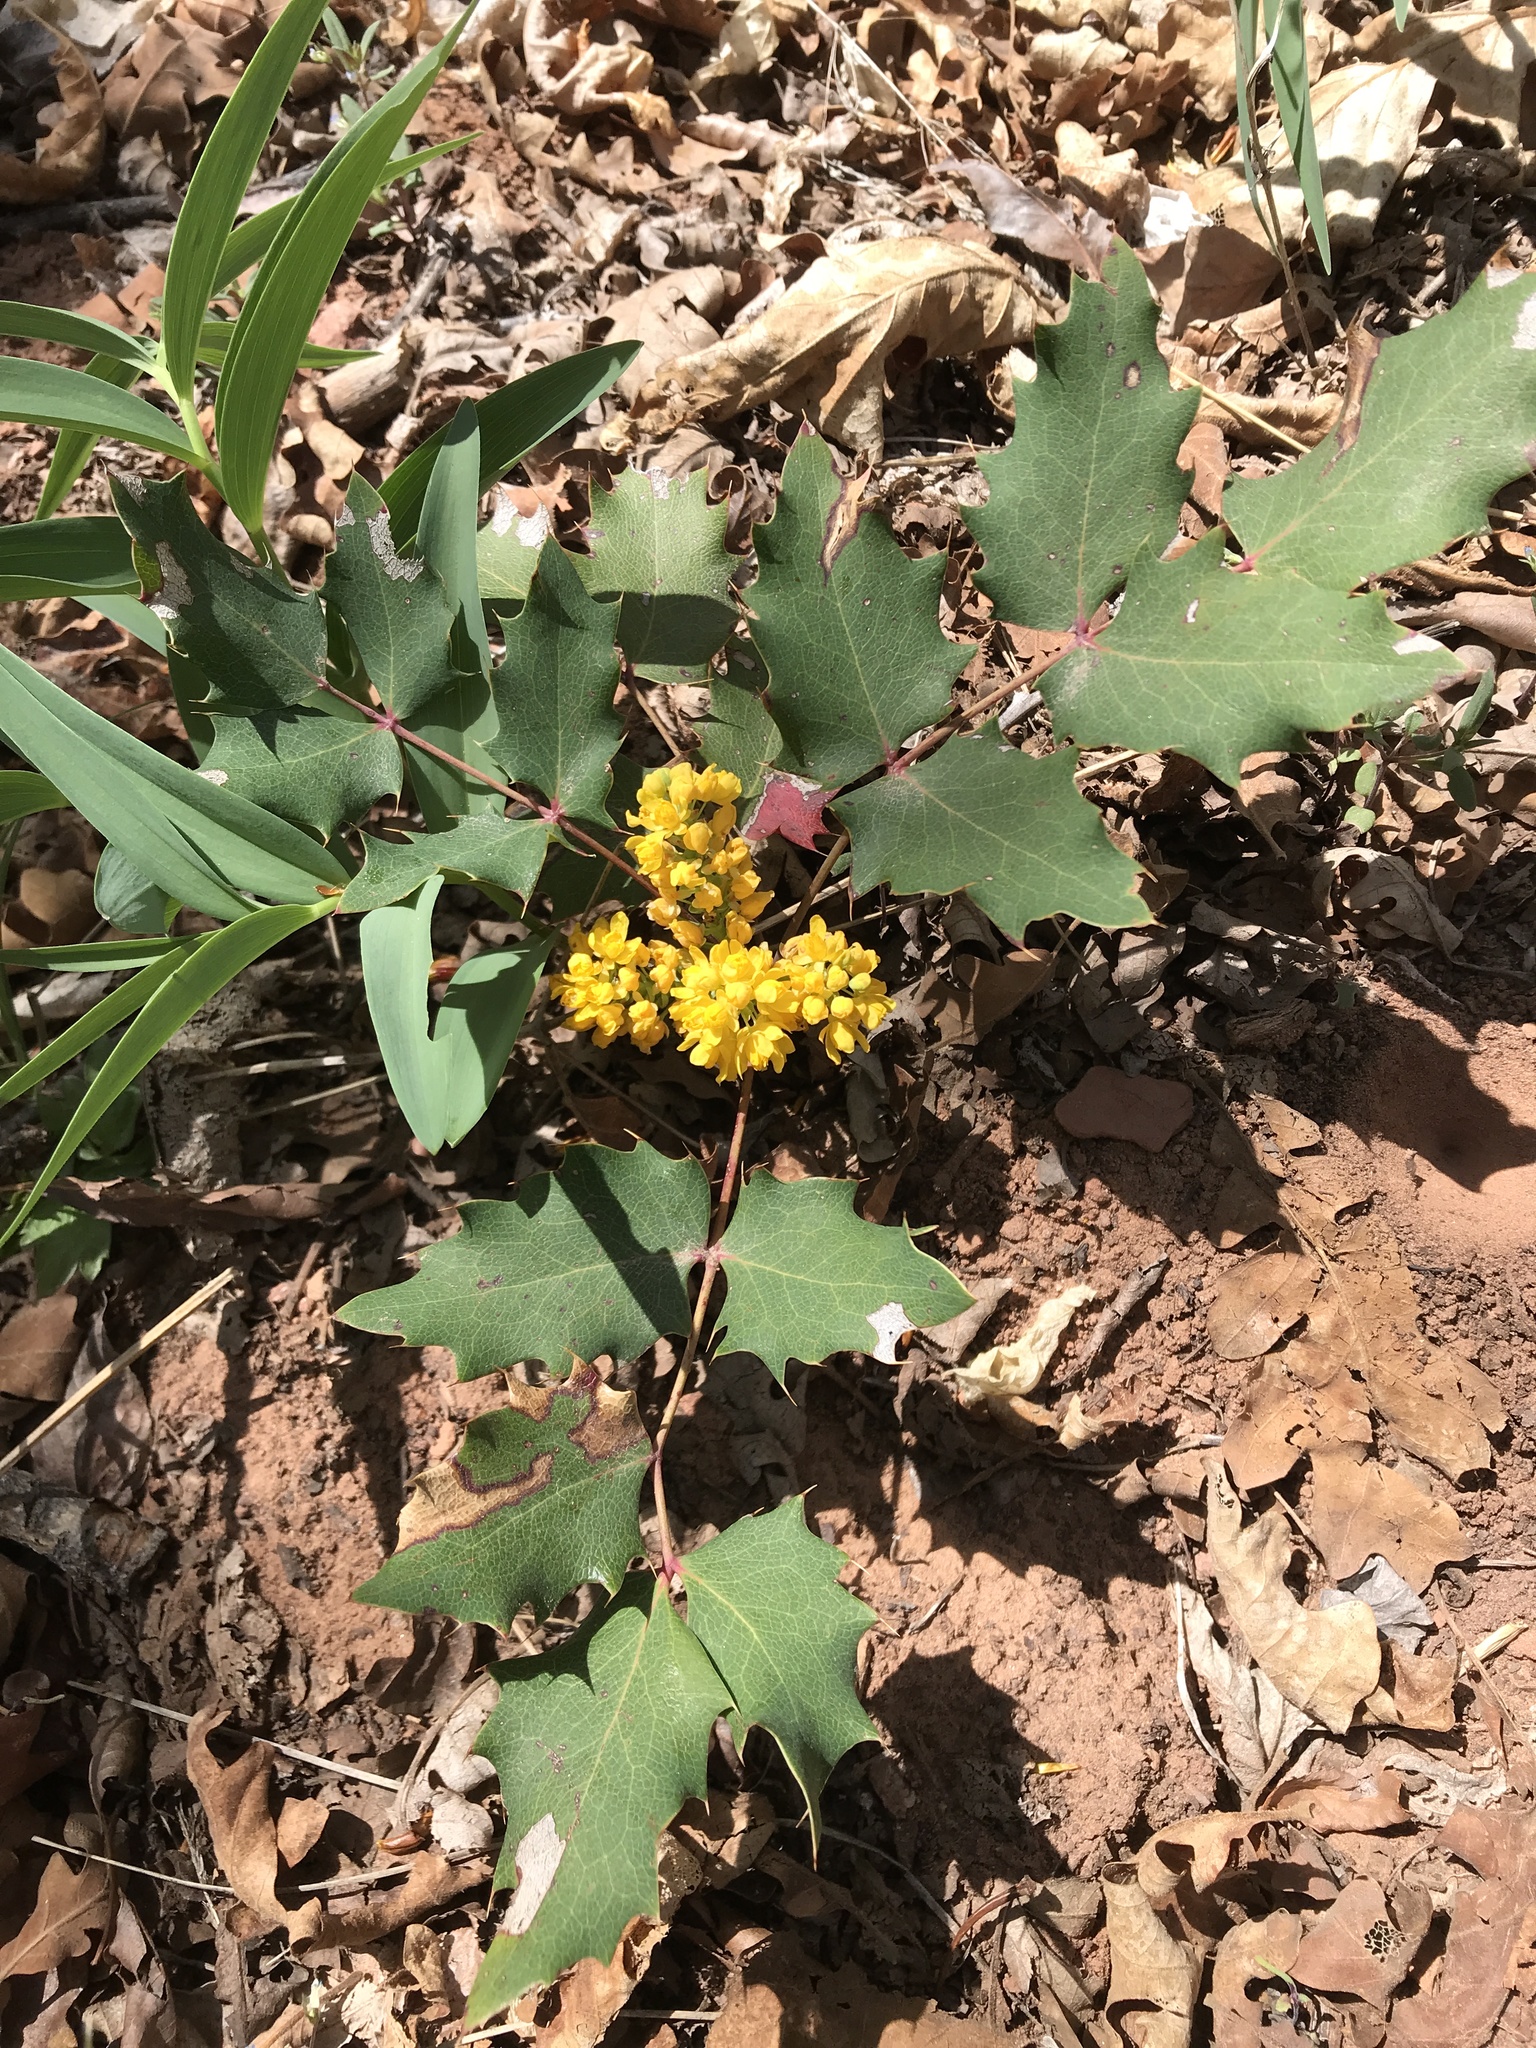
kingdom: Plantae
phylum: Tracheophyta
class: Magnoliopsida
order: Ranunculales
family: Berberidaceae
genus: Mahonia
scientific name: Mahonia repens
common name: Creeping oregon-grape
